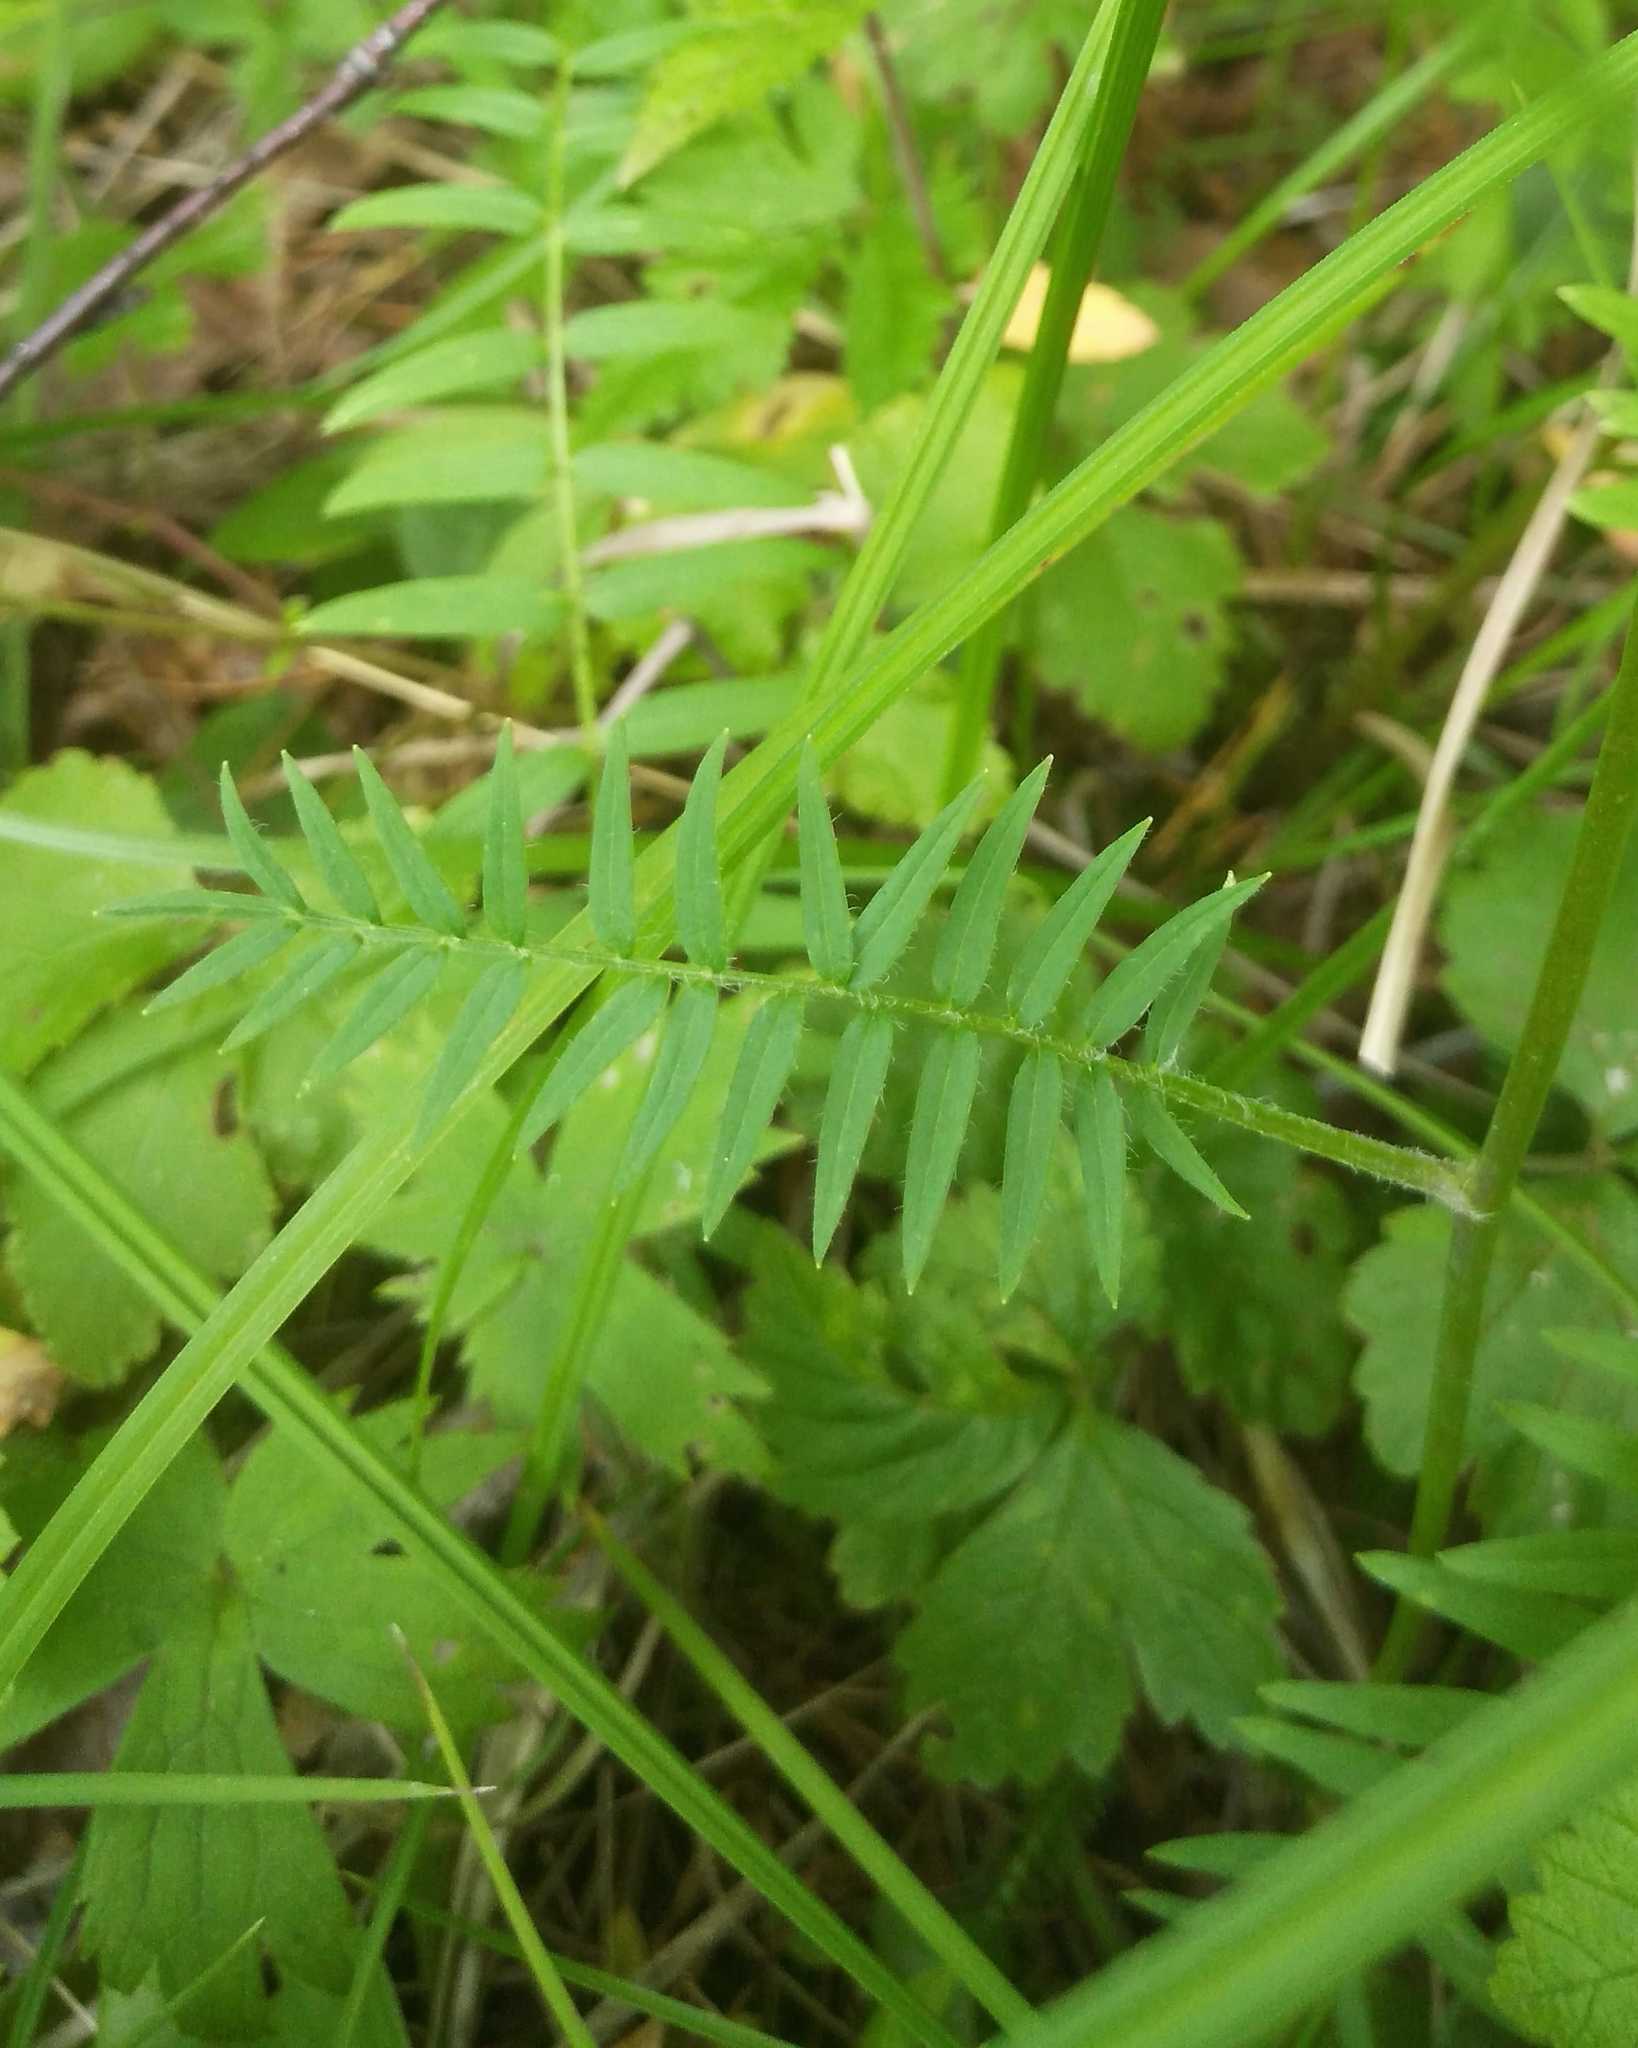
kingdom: Plantae
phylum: Tracheophyta
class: Magnoliopsida
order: Ericales
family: Polemoniaceae
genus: Polemonium
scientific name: Polemonium acutiflorum
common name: Tall jacob's-ladder
